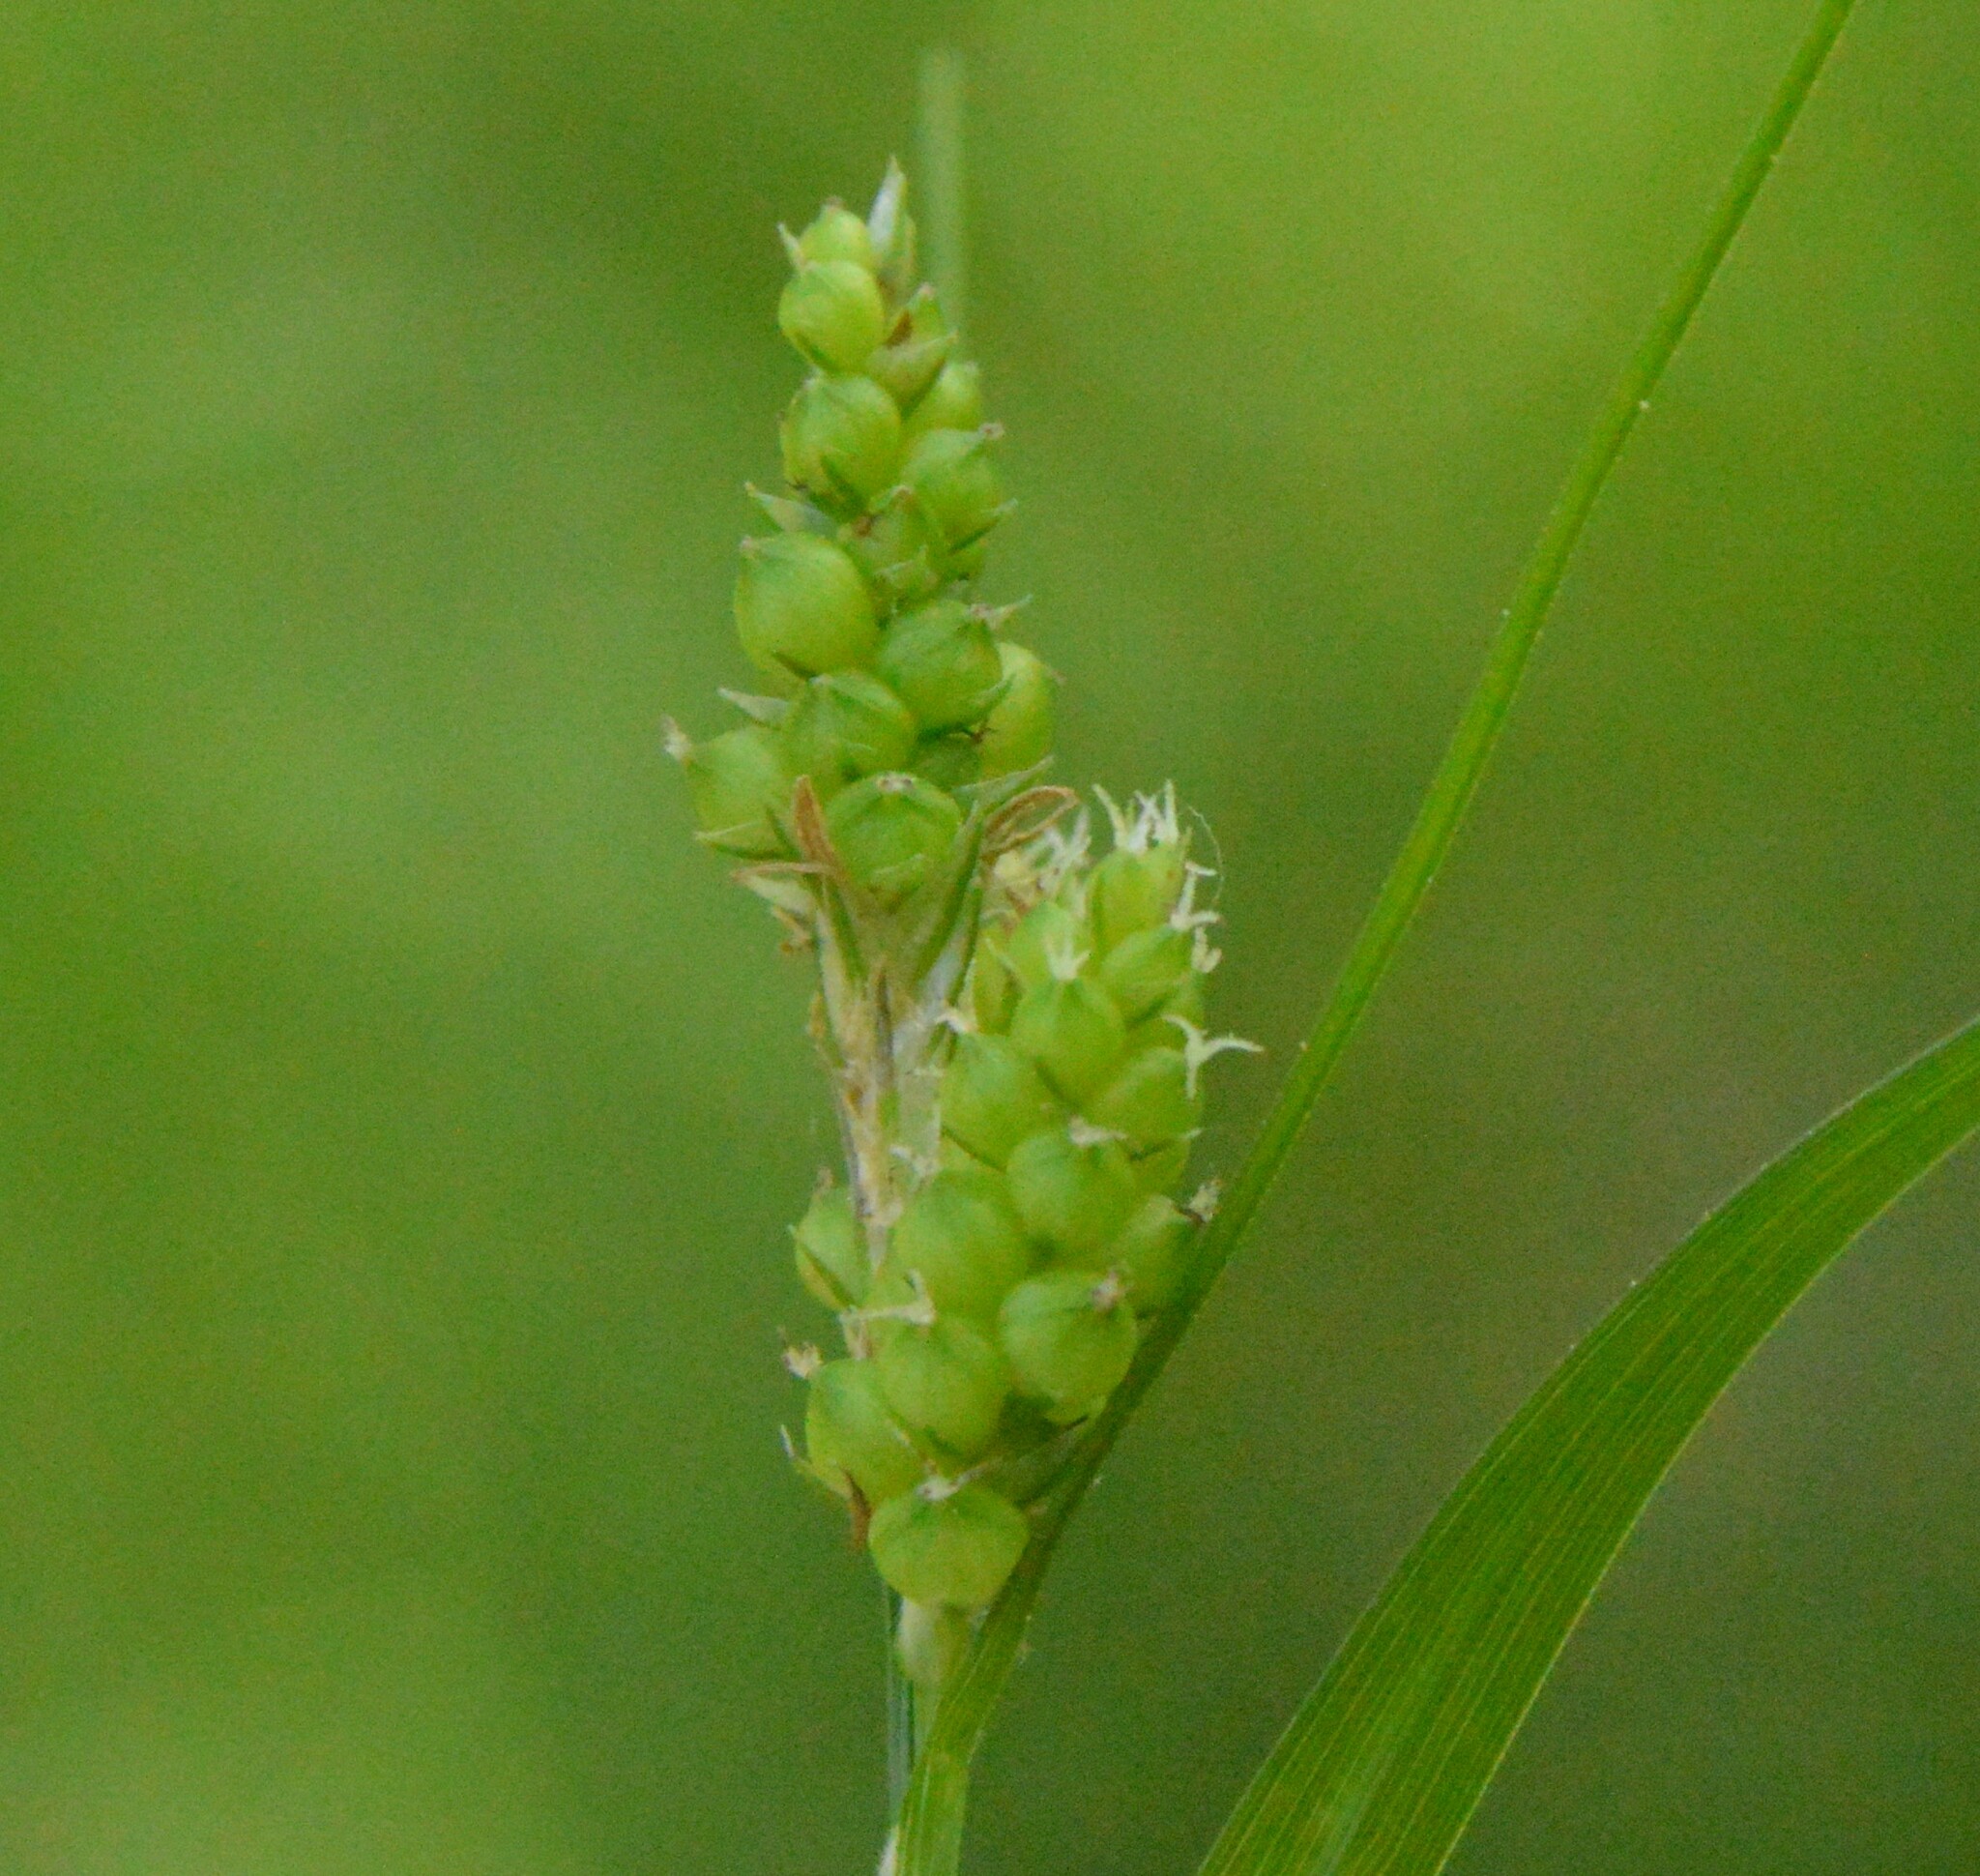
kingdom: Plantae
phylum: Tracheophyta
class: Liliopsida
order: Poales
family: Cyperaceae
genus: Carex
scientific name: Carex caroliniana
